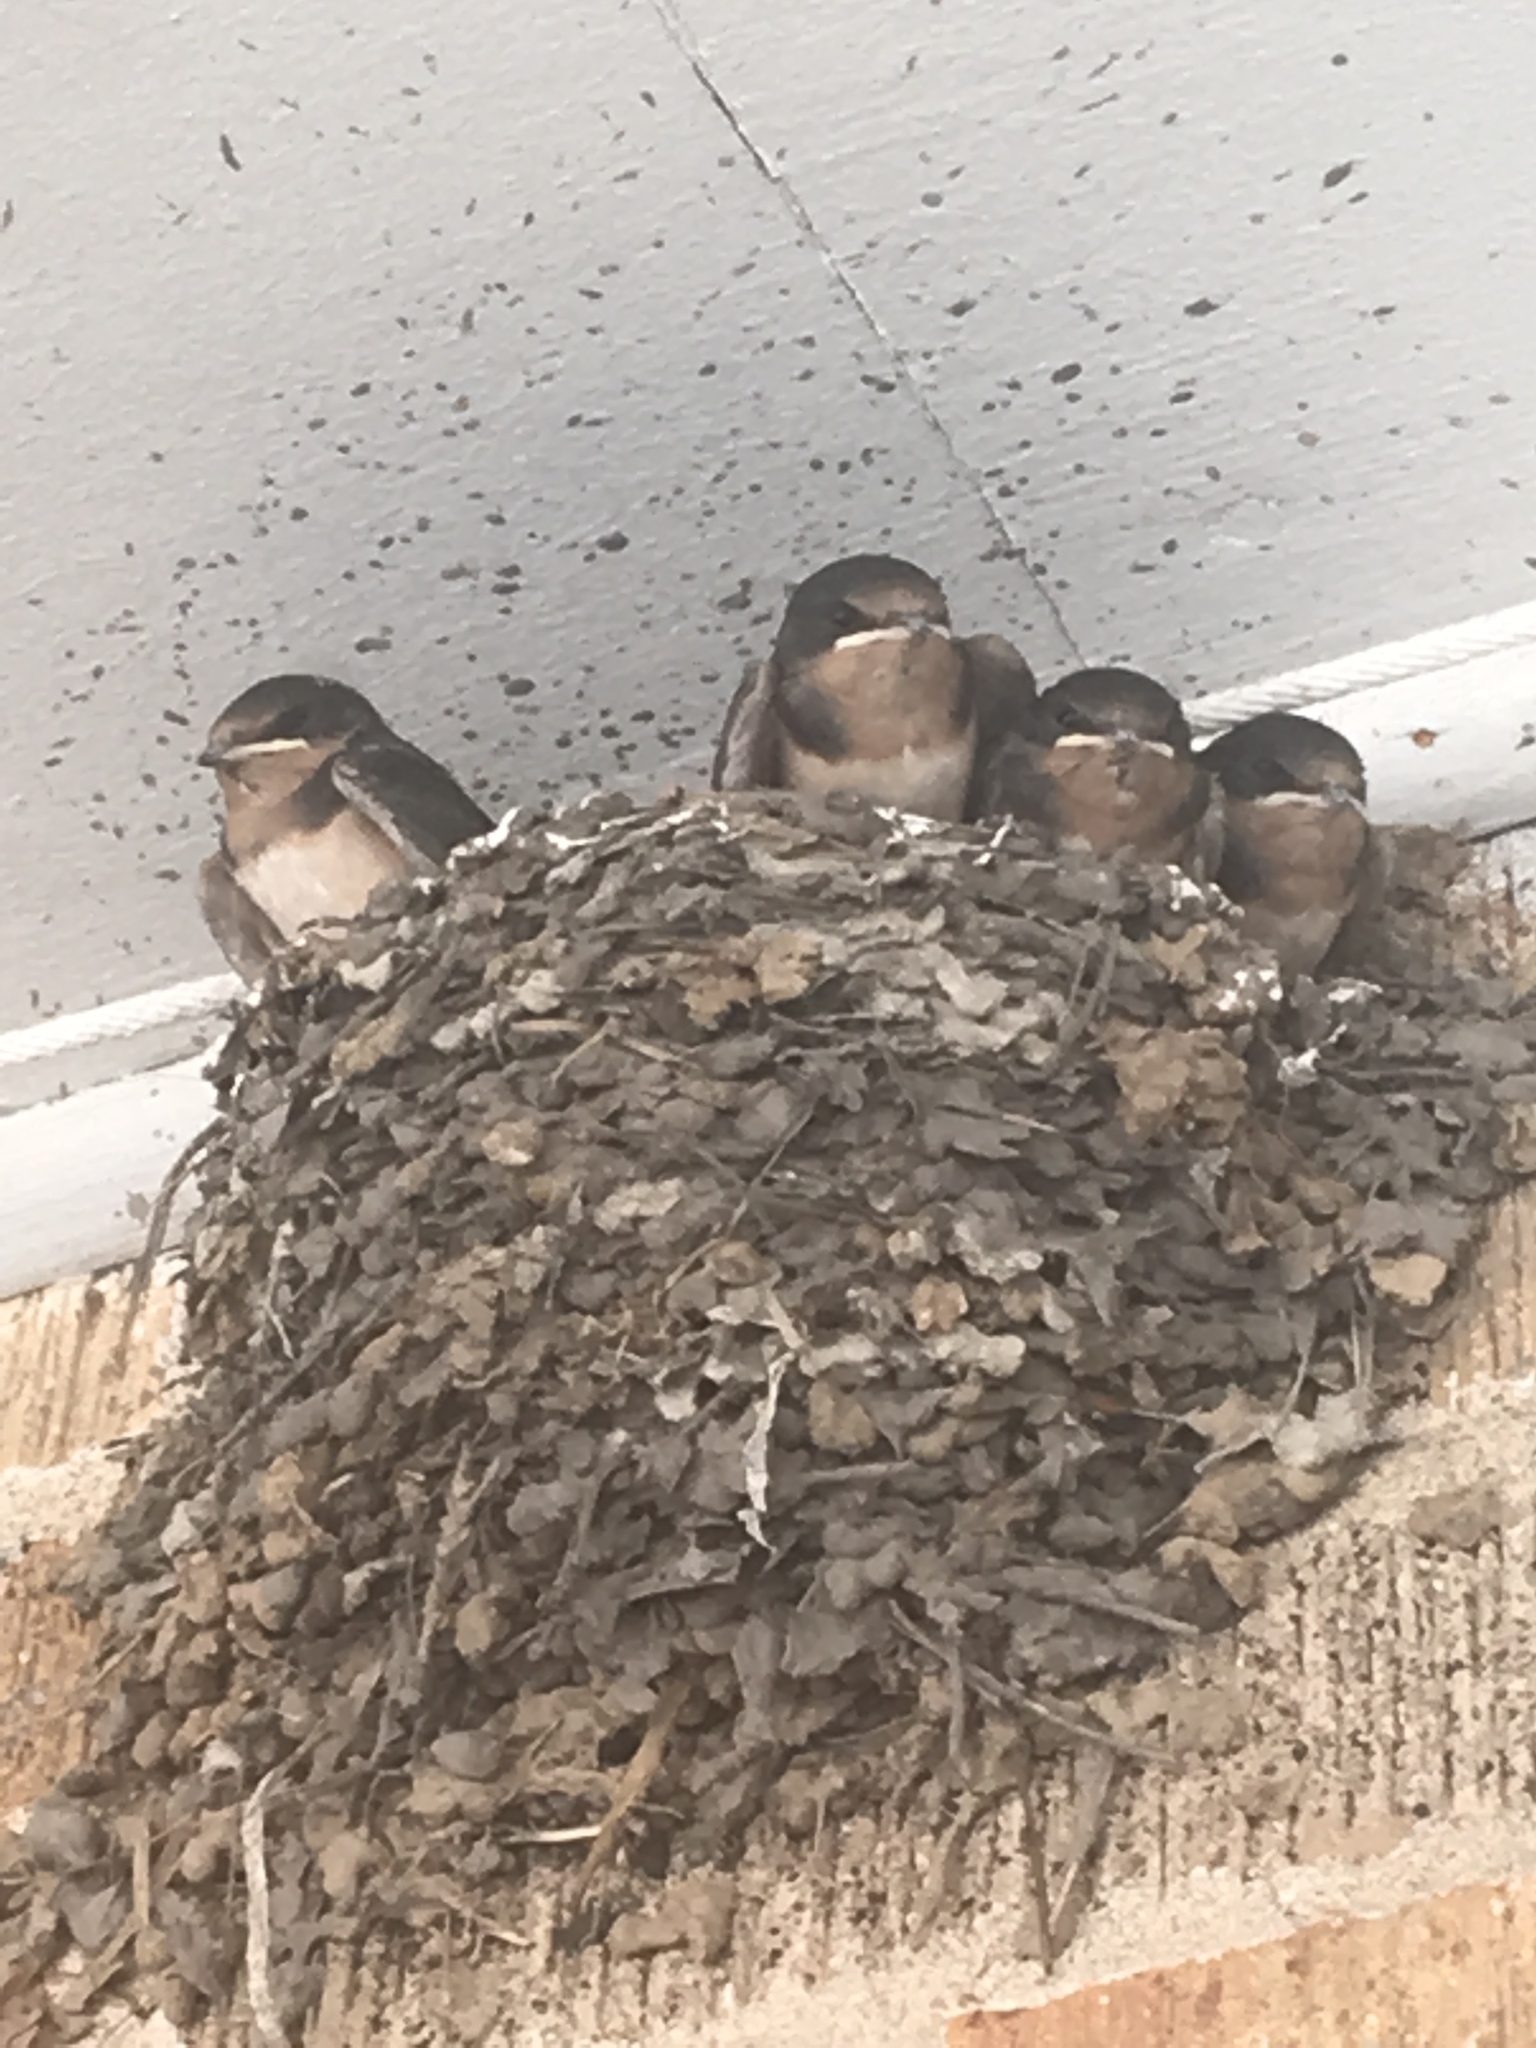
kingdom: Animalia
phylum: Chordata
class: Aves
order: Passeriformes
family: Hirundinidae
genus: Hirundo
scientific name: Hirundo rustica
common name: Barn swallow
